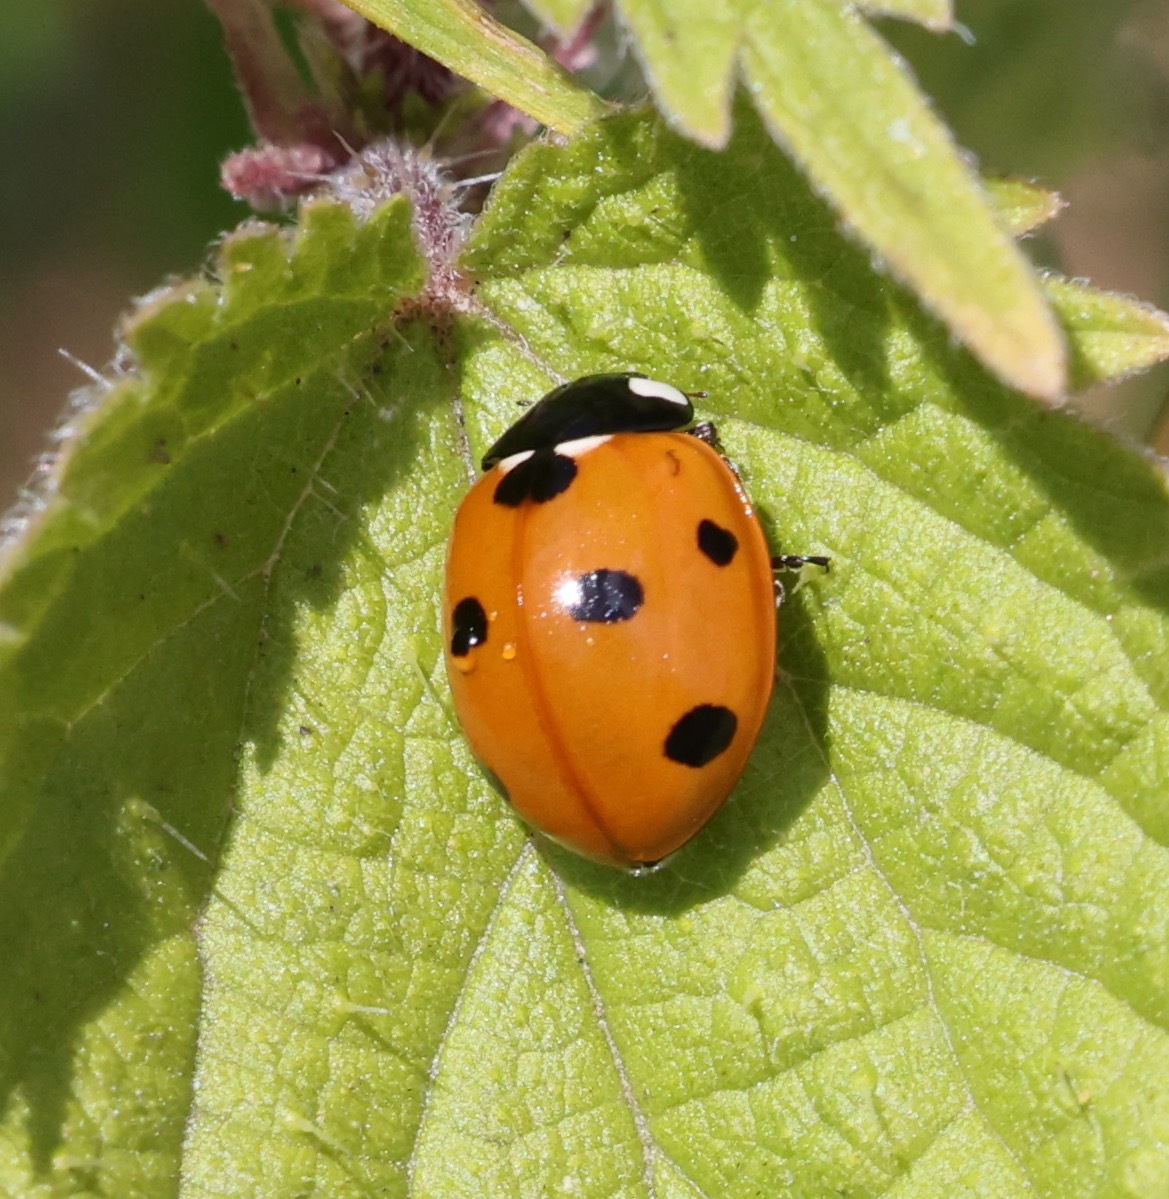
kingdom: Animalia
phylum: Arthropoda
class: Insecta
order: Coleoptera
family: Coccinellidae
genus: Coccinella
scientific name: Coccinella septempunctata
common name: Sevenspotted lady beetle
